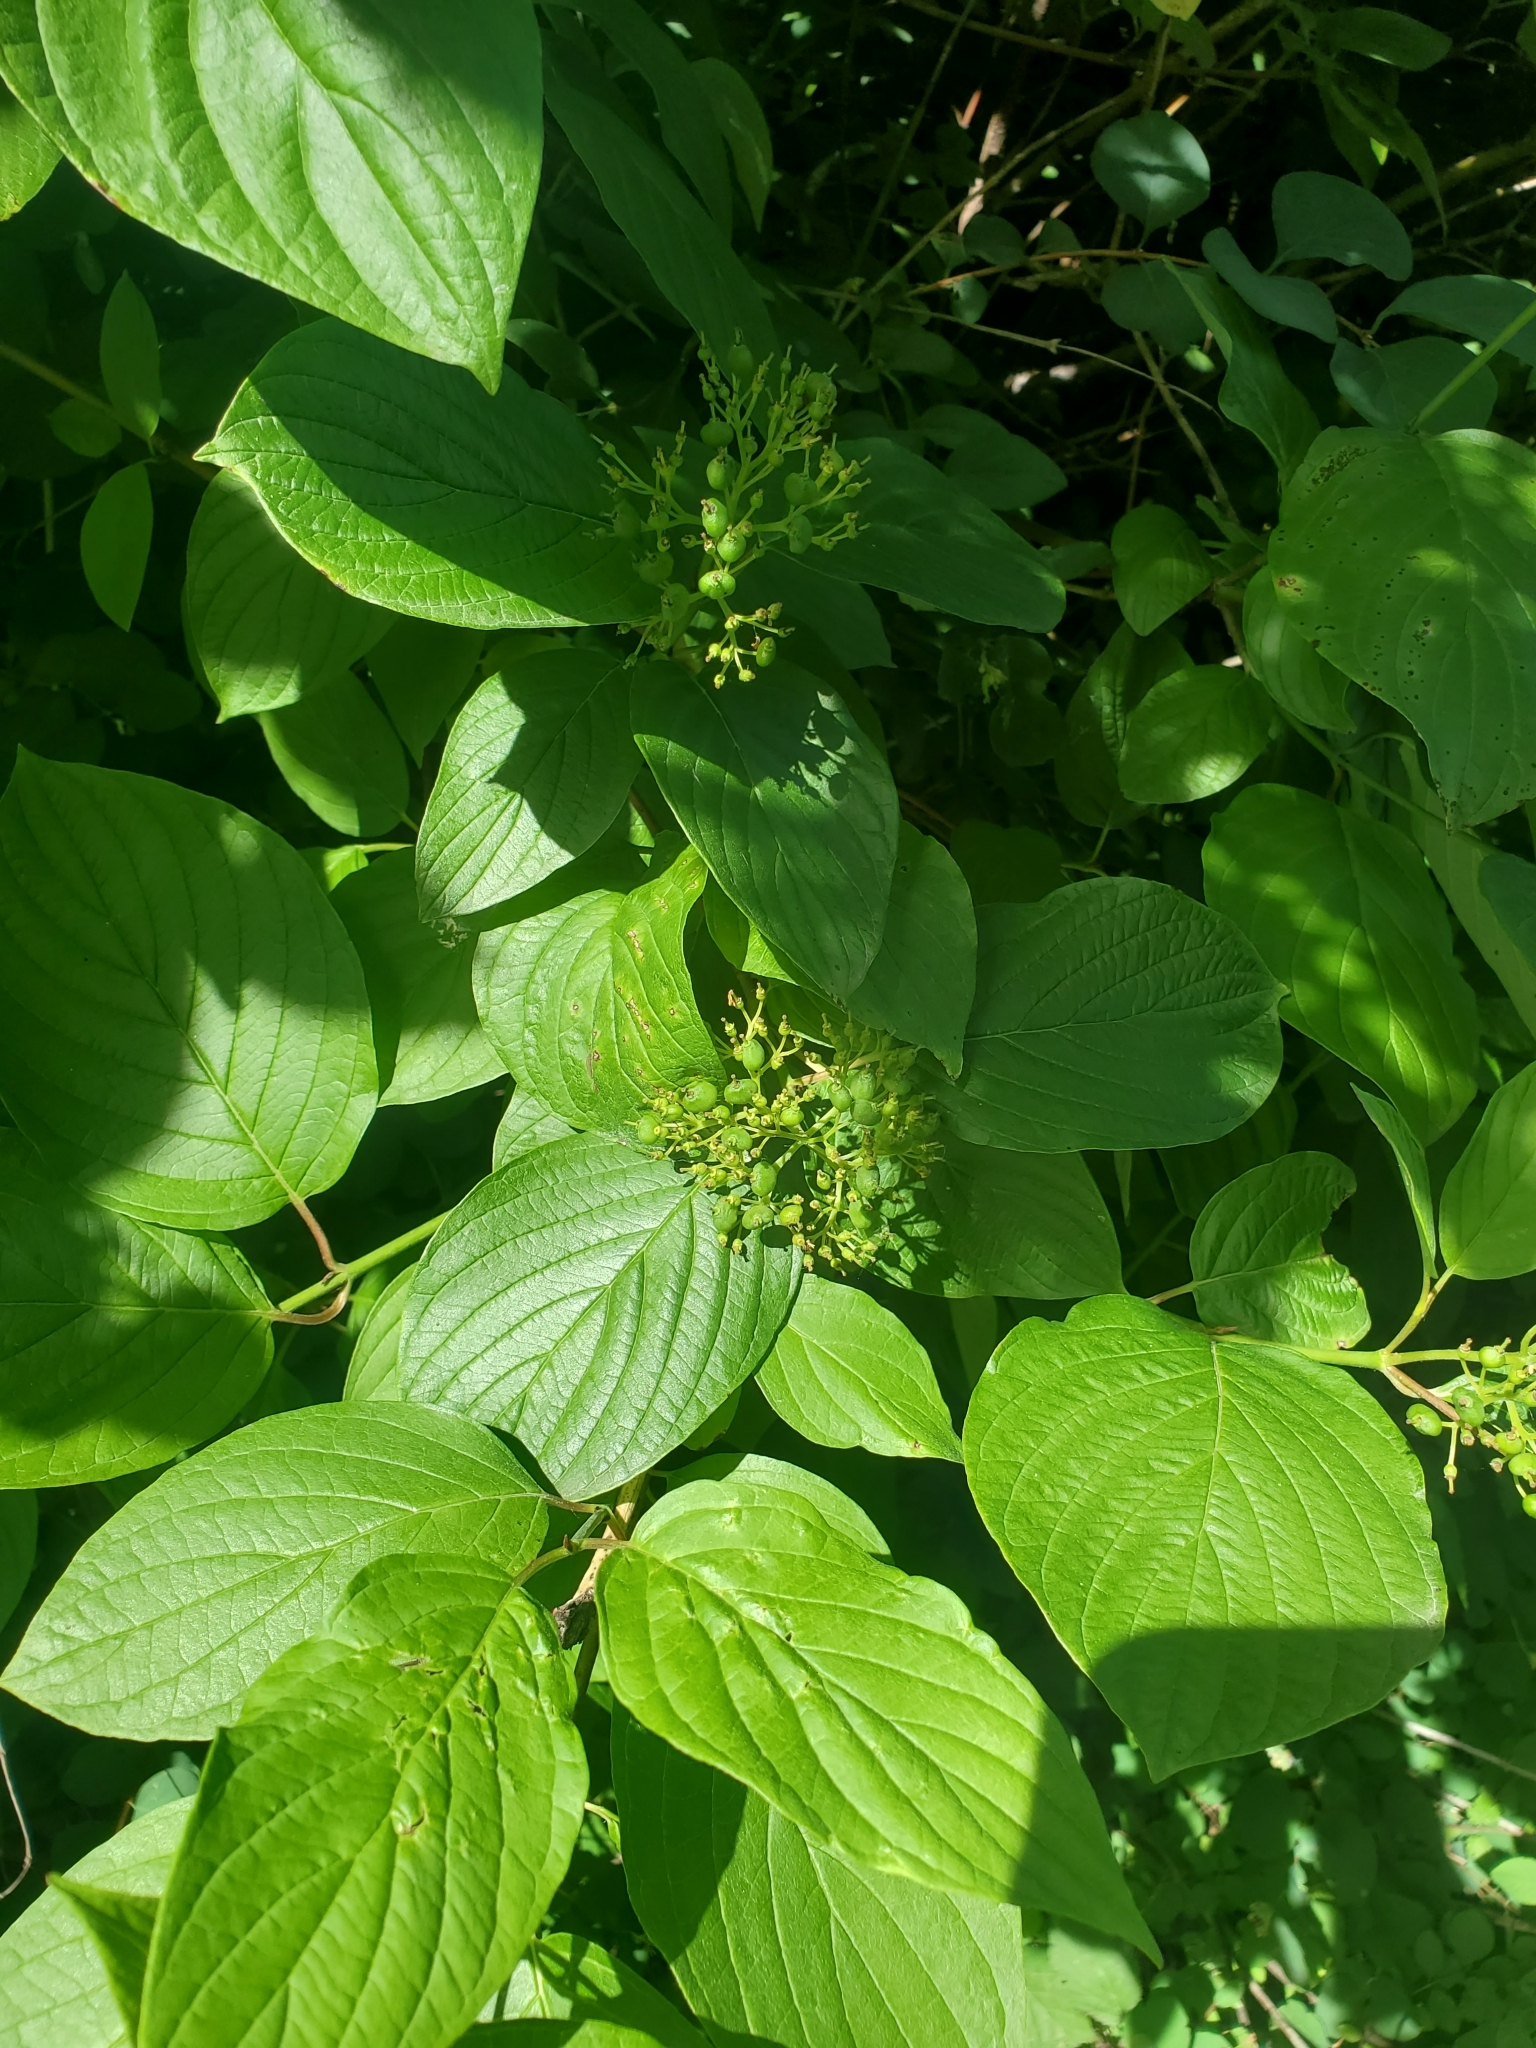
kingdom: Plantae
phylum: Tracheophyta
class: Magnoliopsida
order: Cornales
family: Cornaceae
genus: Cornus
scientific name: Cornus sericea
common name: Red-osier dogwood
